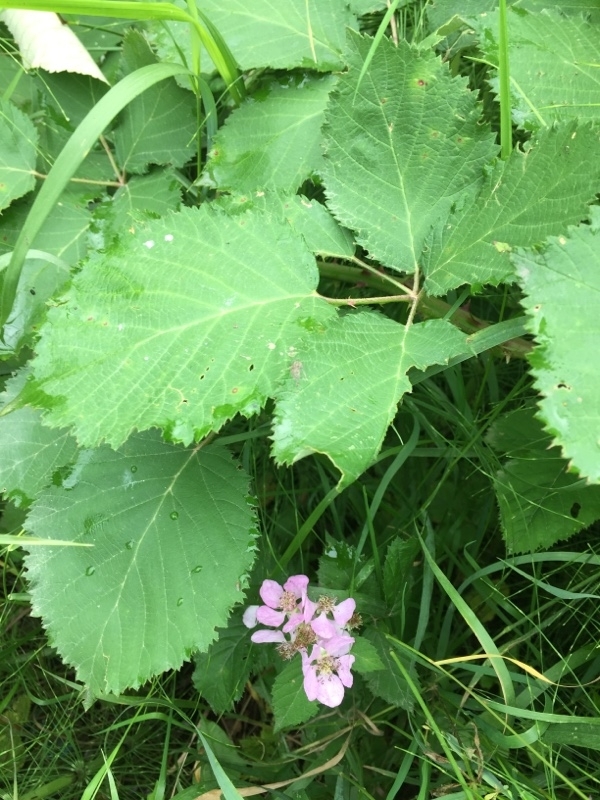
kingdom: Plantae
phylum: Tracheophyta
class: Magnoliopsida
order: Rosales
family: Rosaceae
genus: Rubus
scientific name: Rubus armeniacus
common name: Himalayan blackberry
